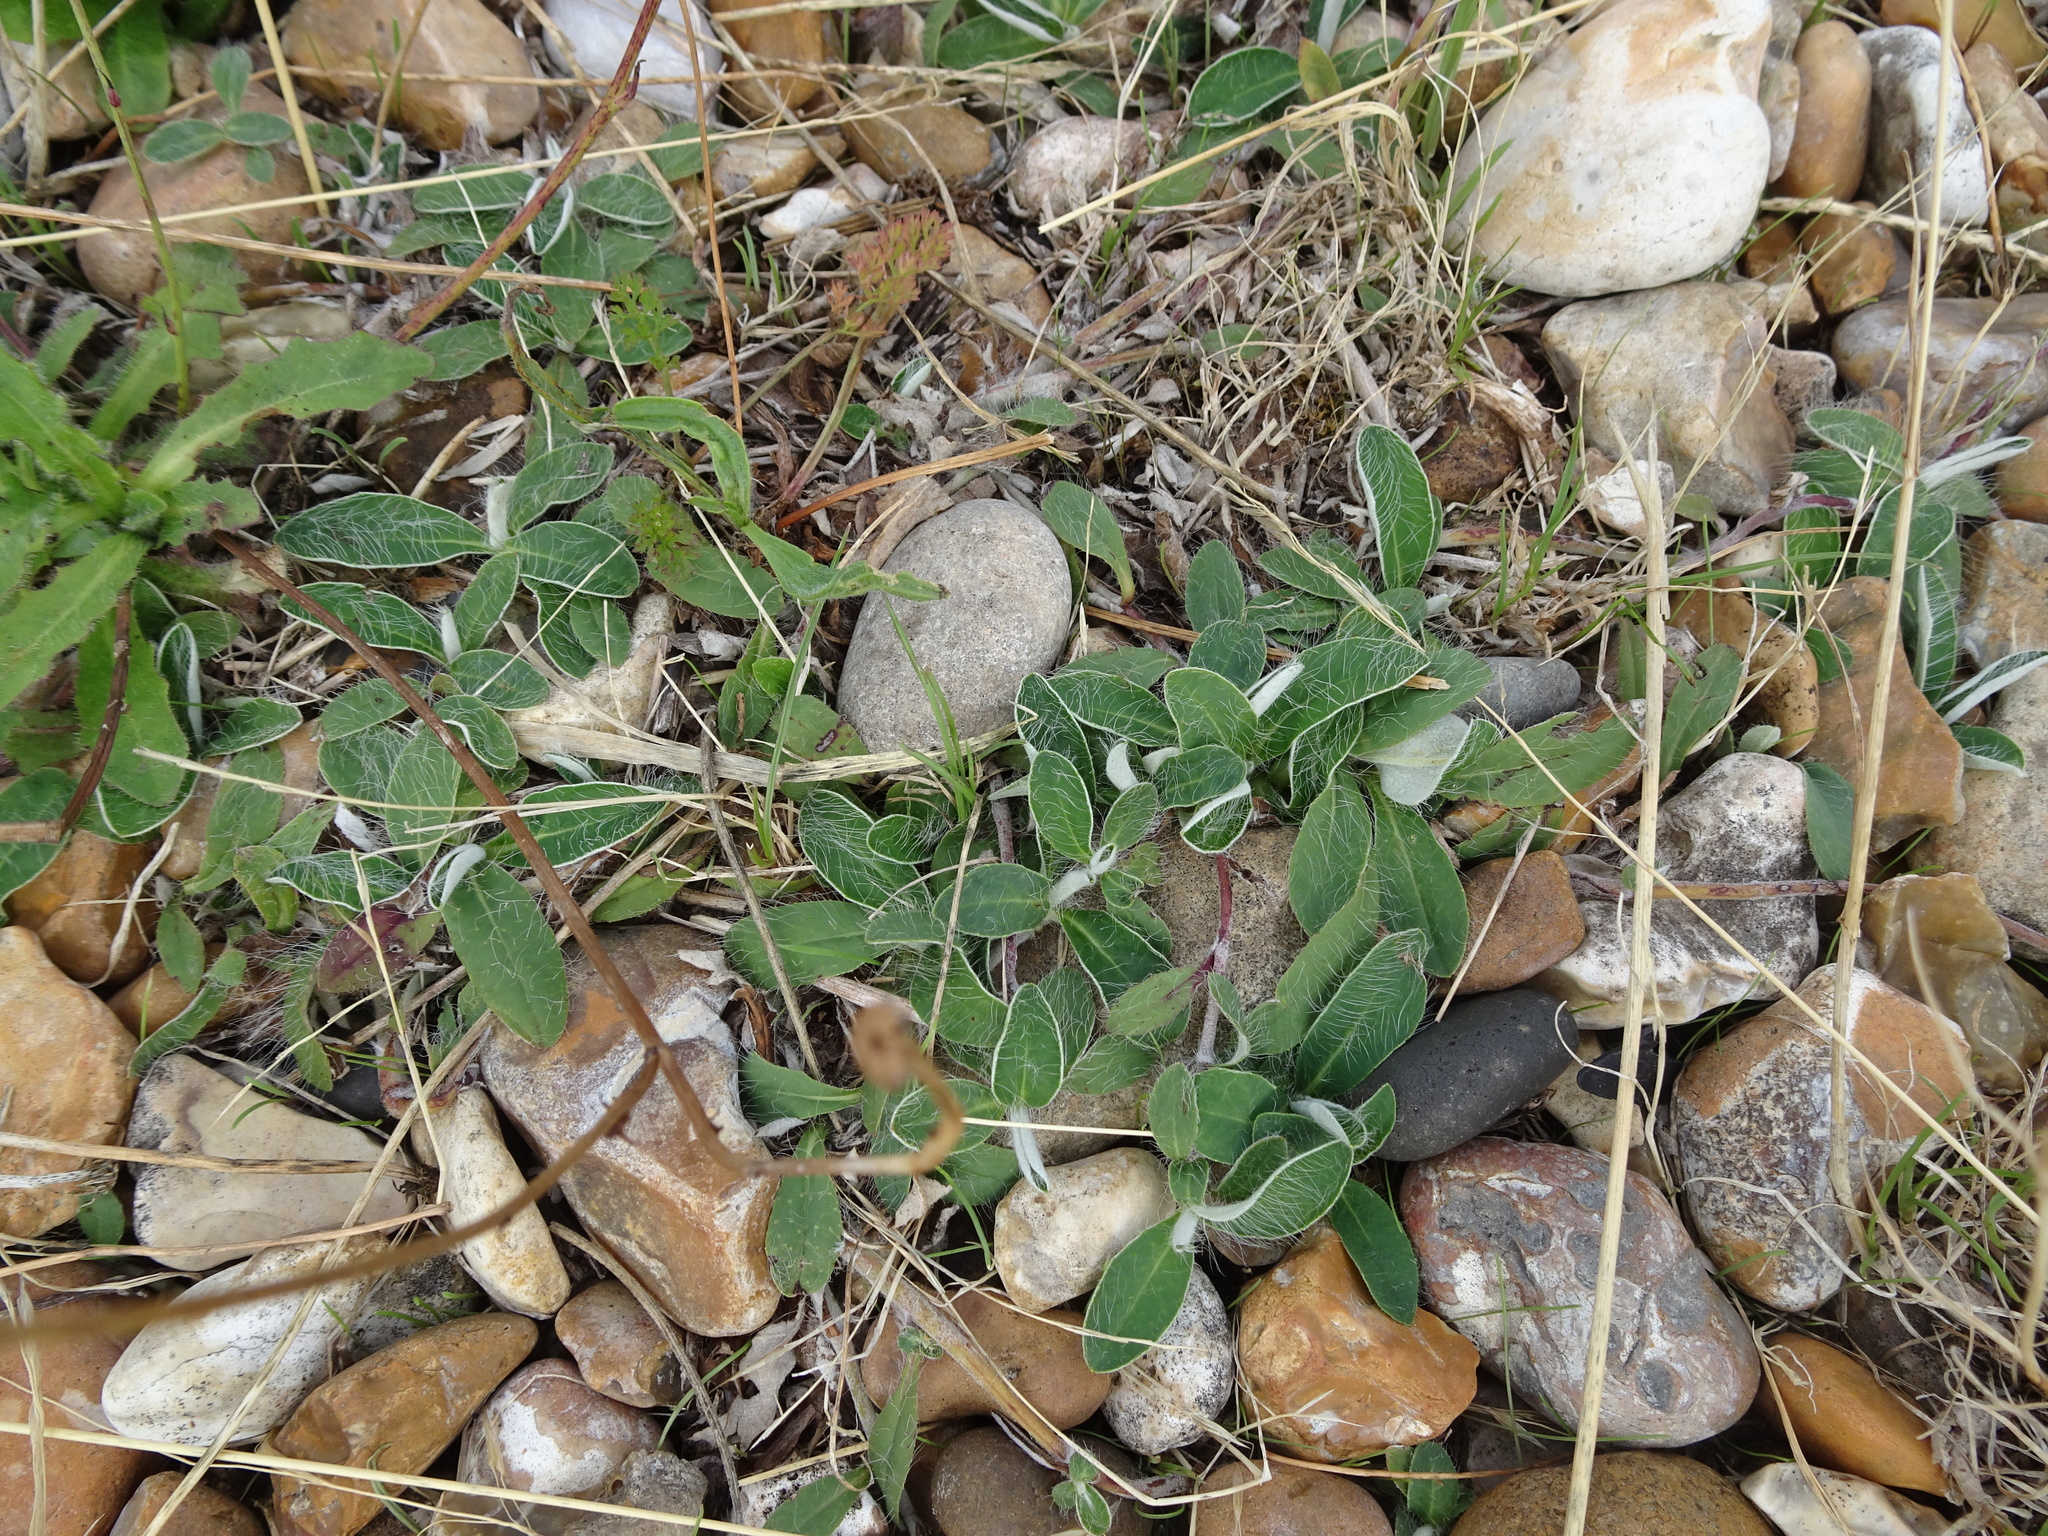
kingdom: Plantae
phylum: Tracheophyta
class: Magnoliopsida
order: Asterales
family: Asteraceae
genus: Pilosella
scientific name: Pilosella officinarum
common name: Mouse-ear hawkweed
